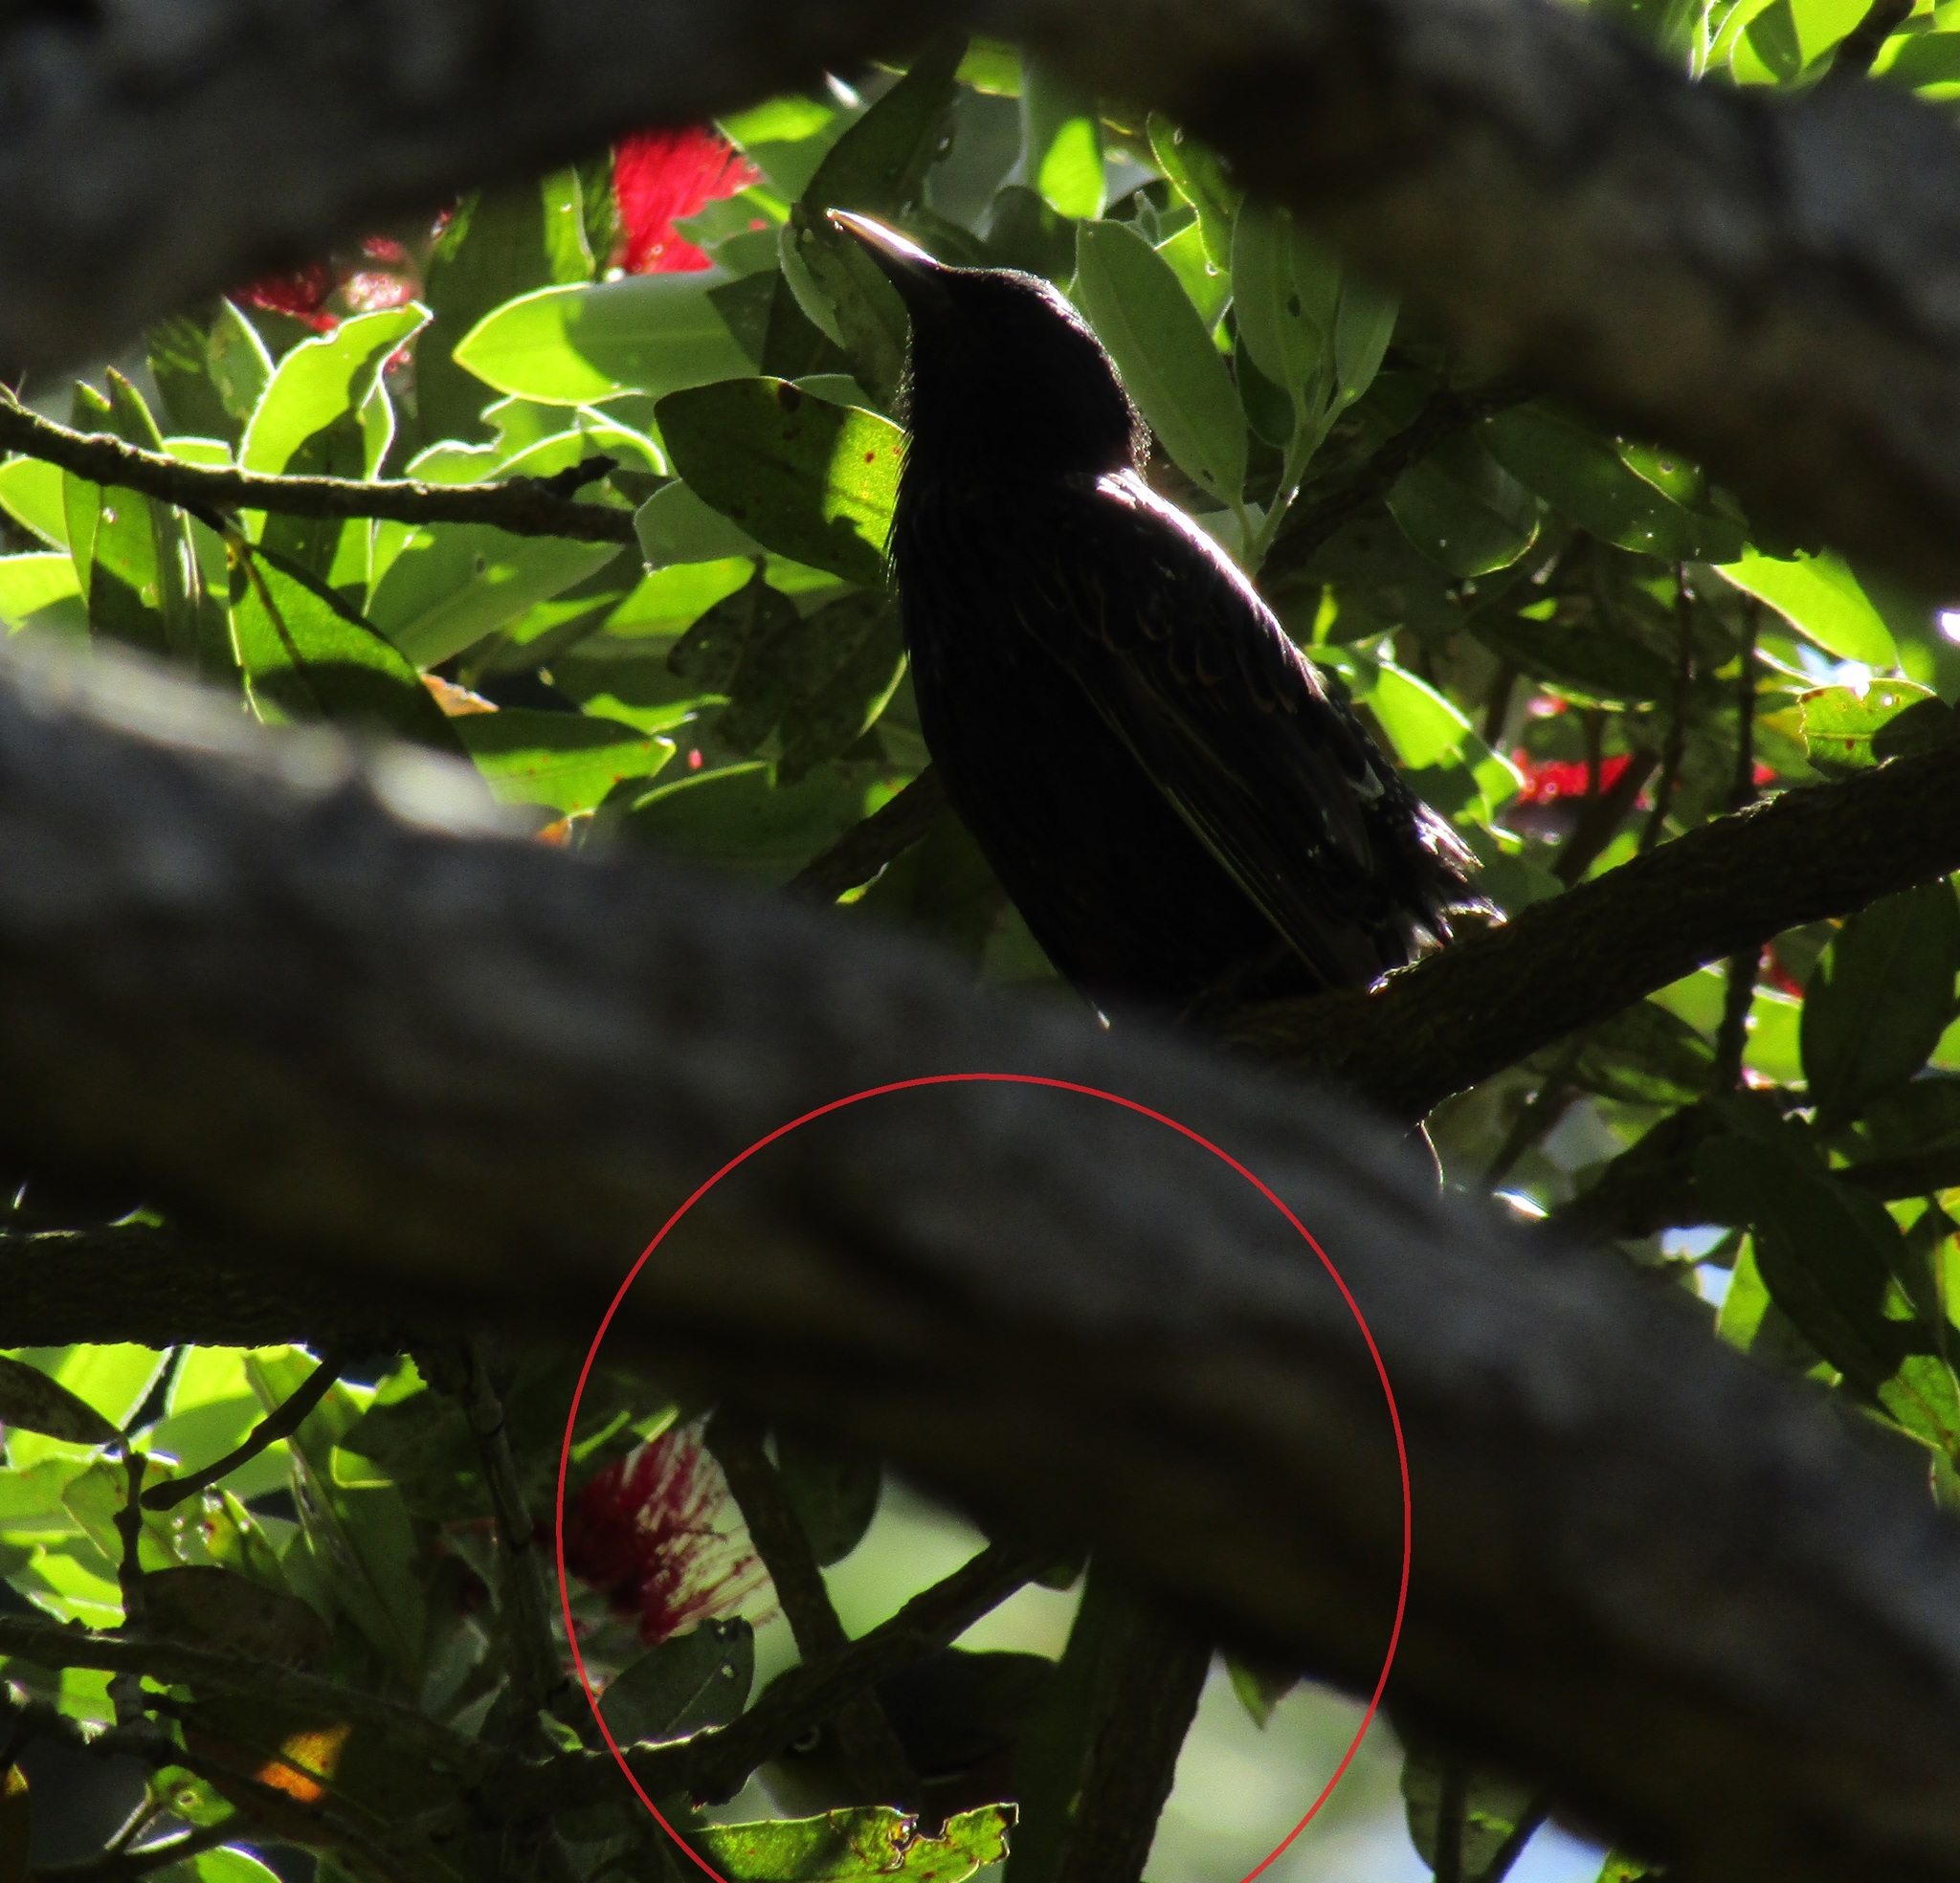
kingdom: Animalia
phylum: Chordata
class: Aves
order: Passeriformes
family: Zosteropidae
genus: Zosterops
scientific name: Zosterops lateralis
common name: Silvereye
